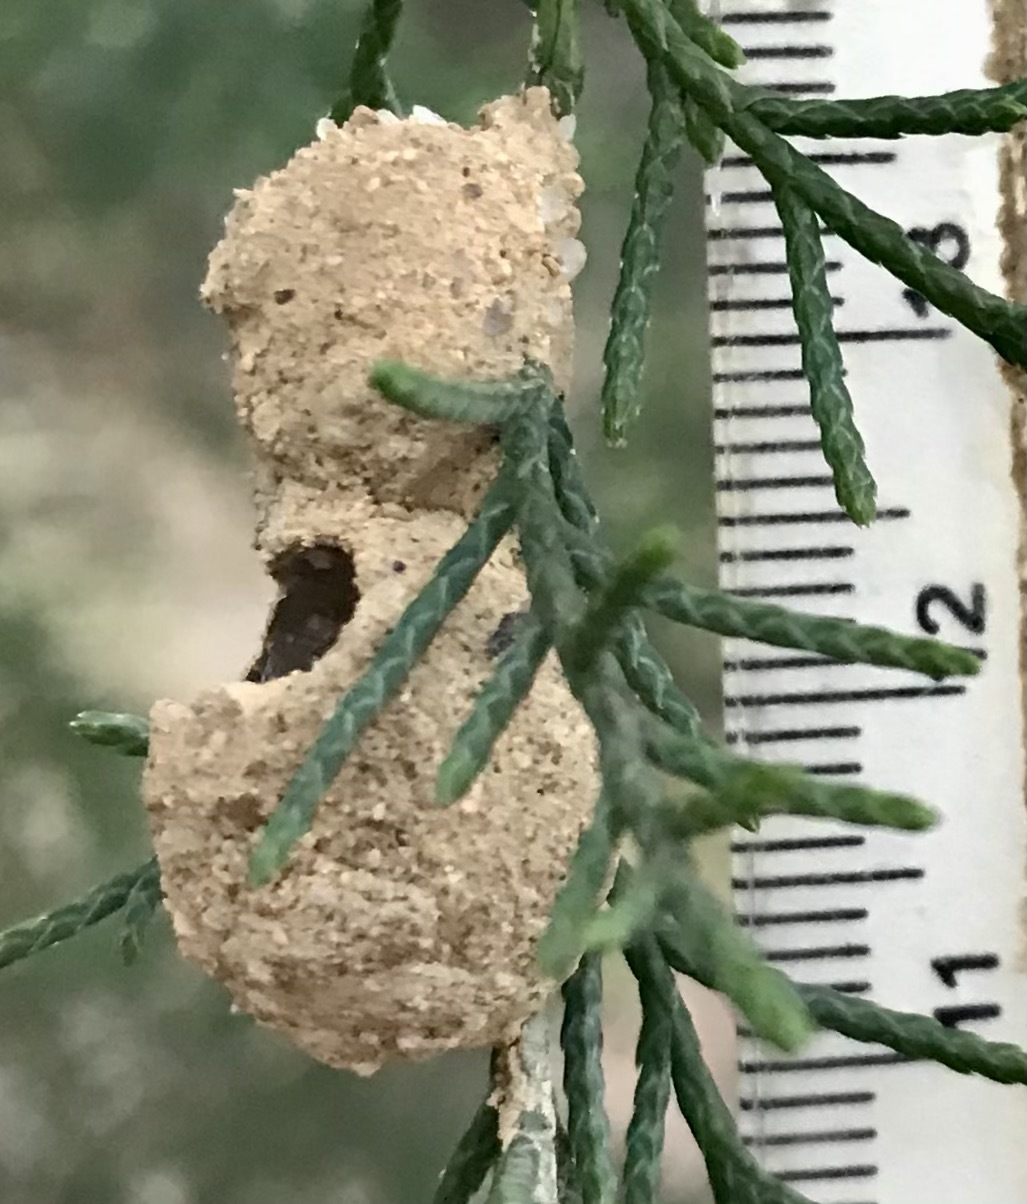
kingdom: Animalia
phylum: Arthropoda
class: Insecta
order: Hymenoptera
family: Vespidae
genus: Eumenes
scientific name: Eumenes
